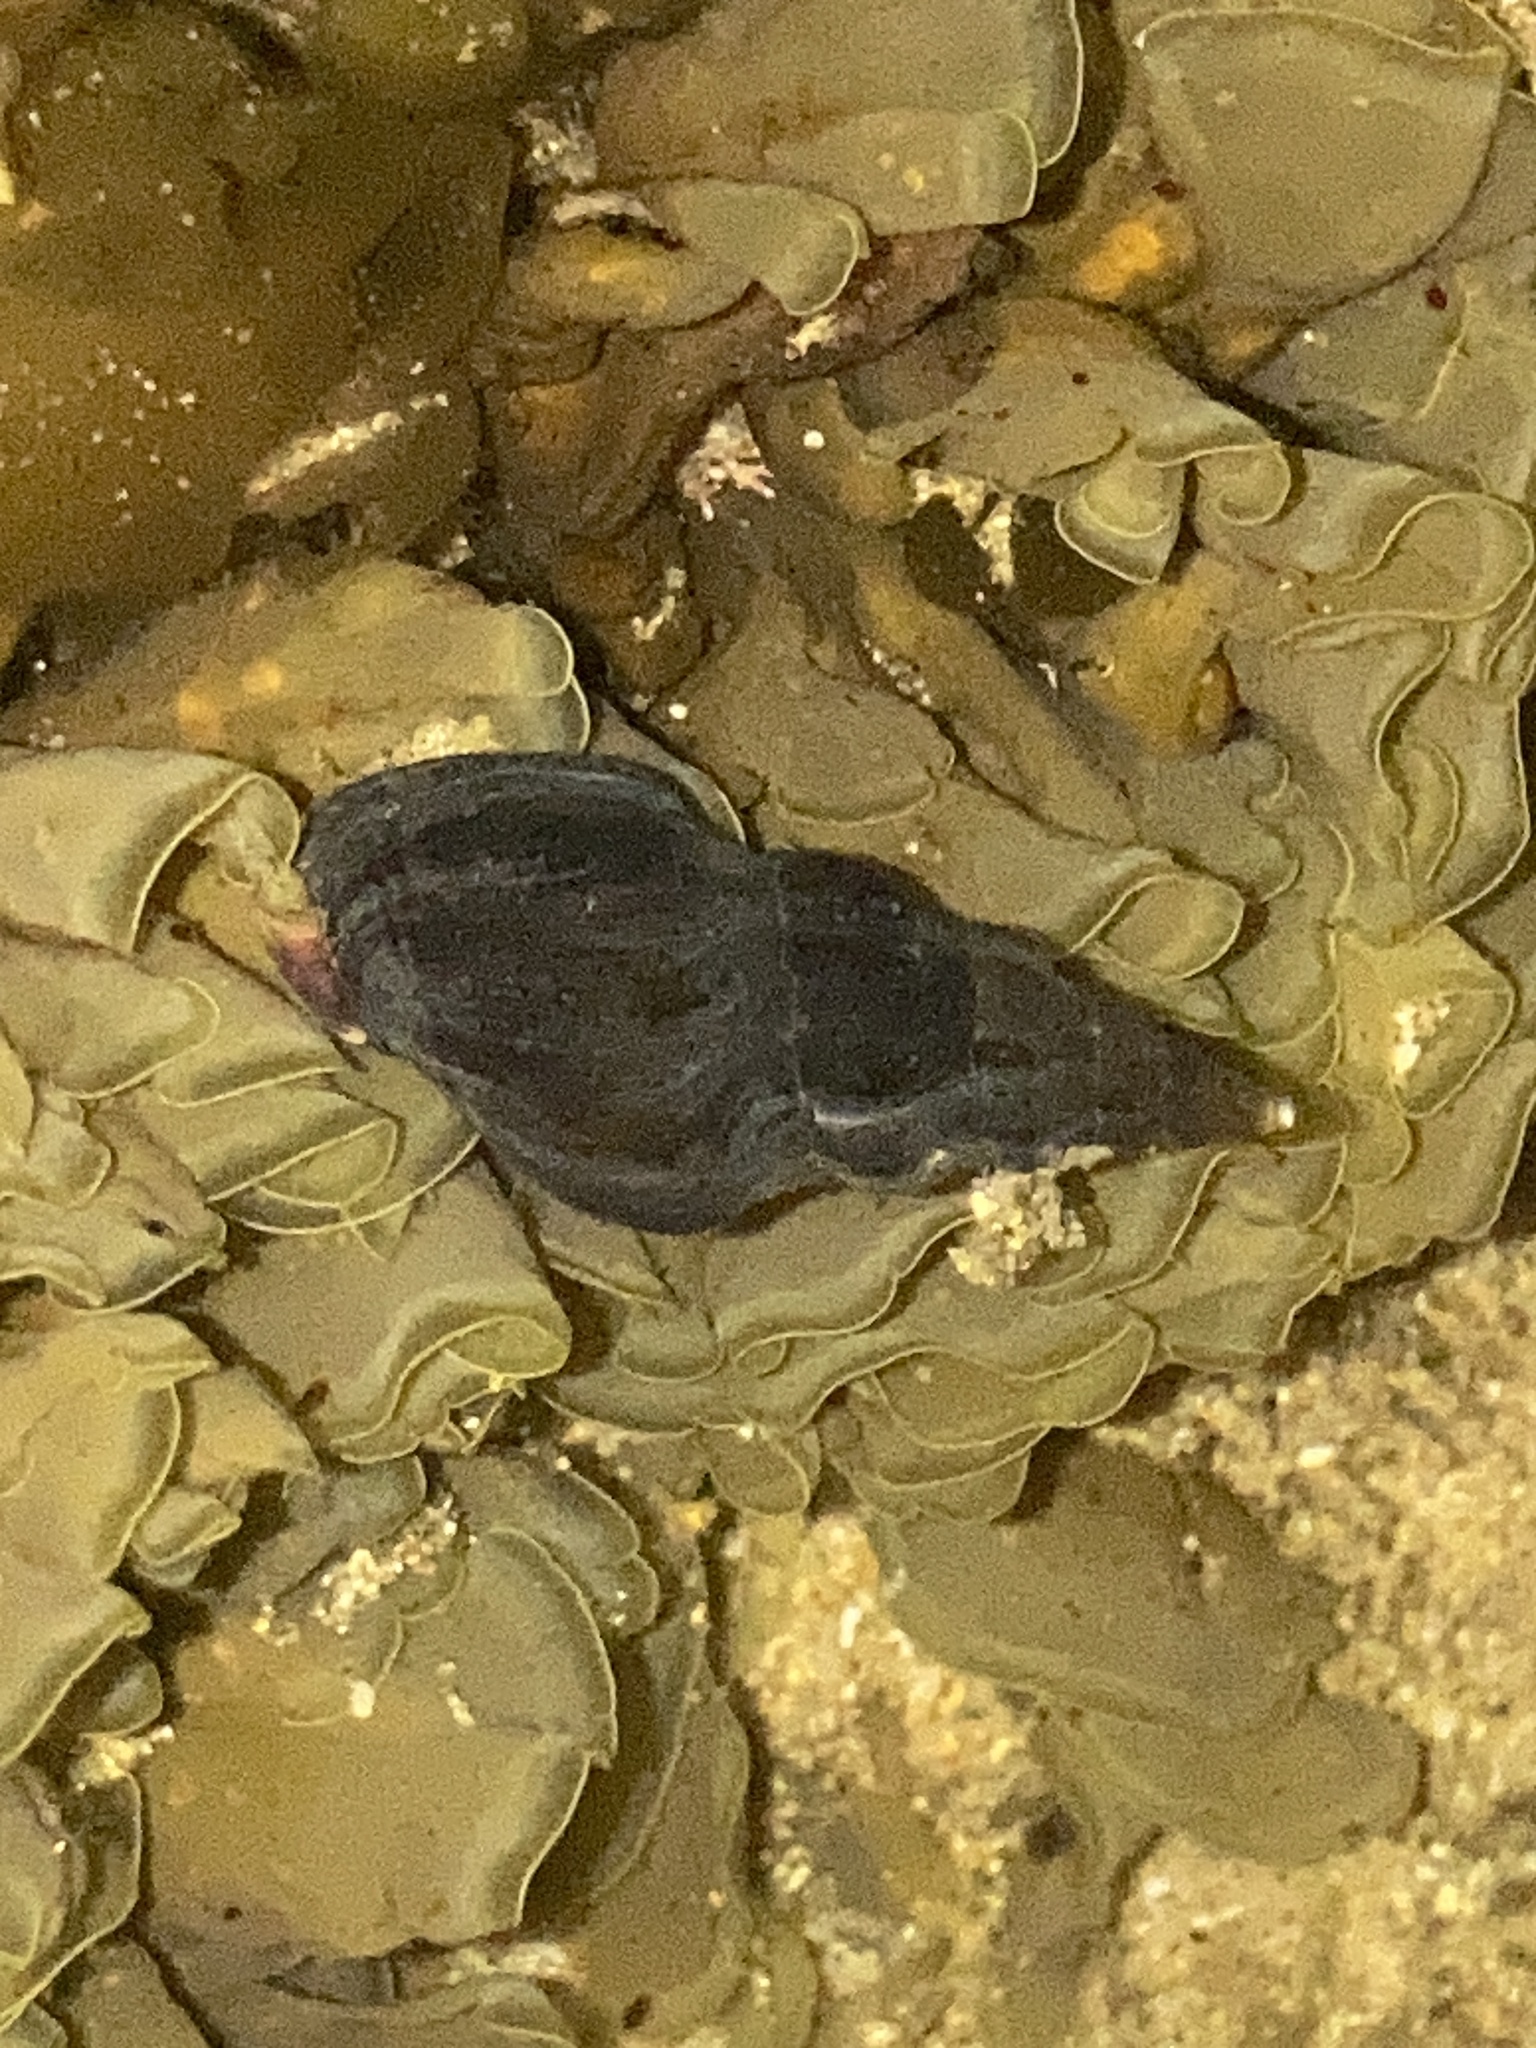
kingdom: Animalia
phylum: Mollusca
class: Gastropoda
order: Neogastropoda
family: Cominellidae
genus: Cominella
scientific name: Cominella eburnea
